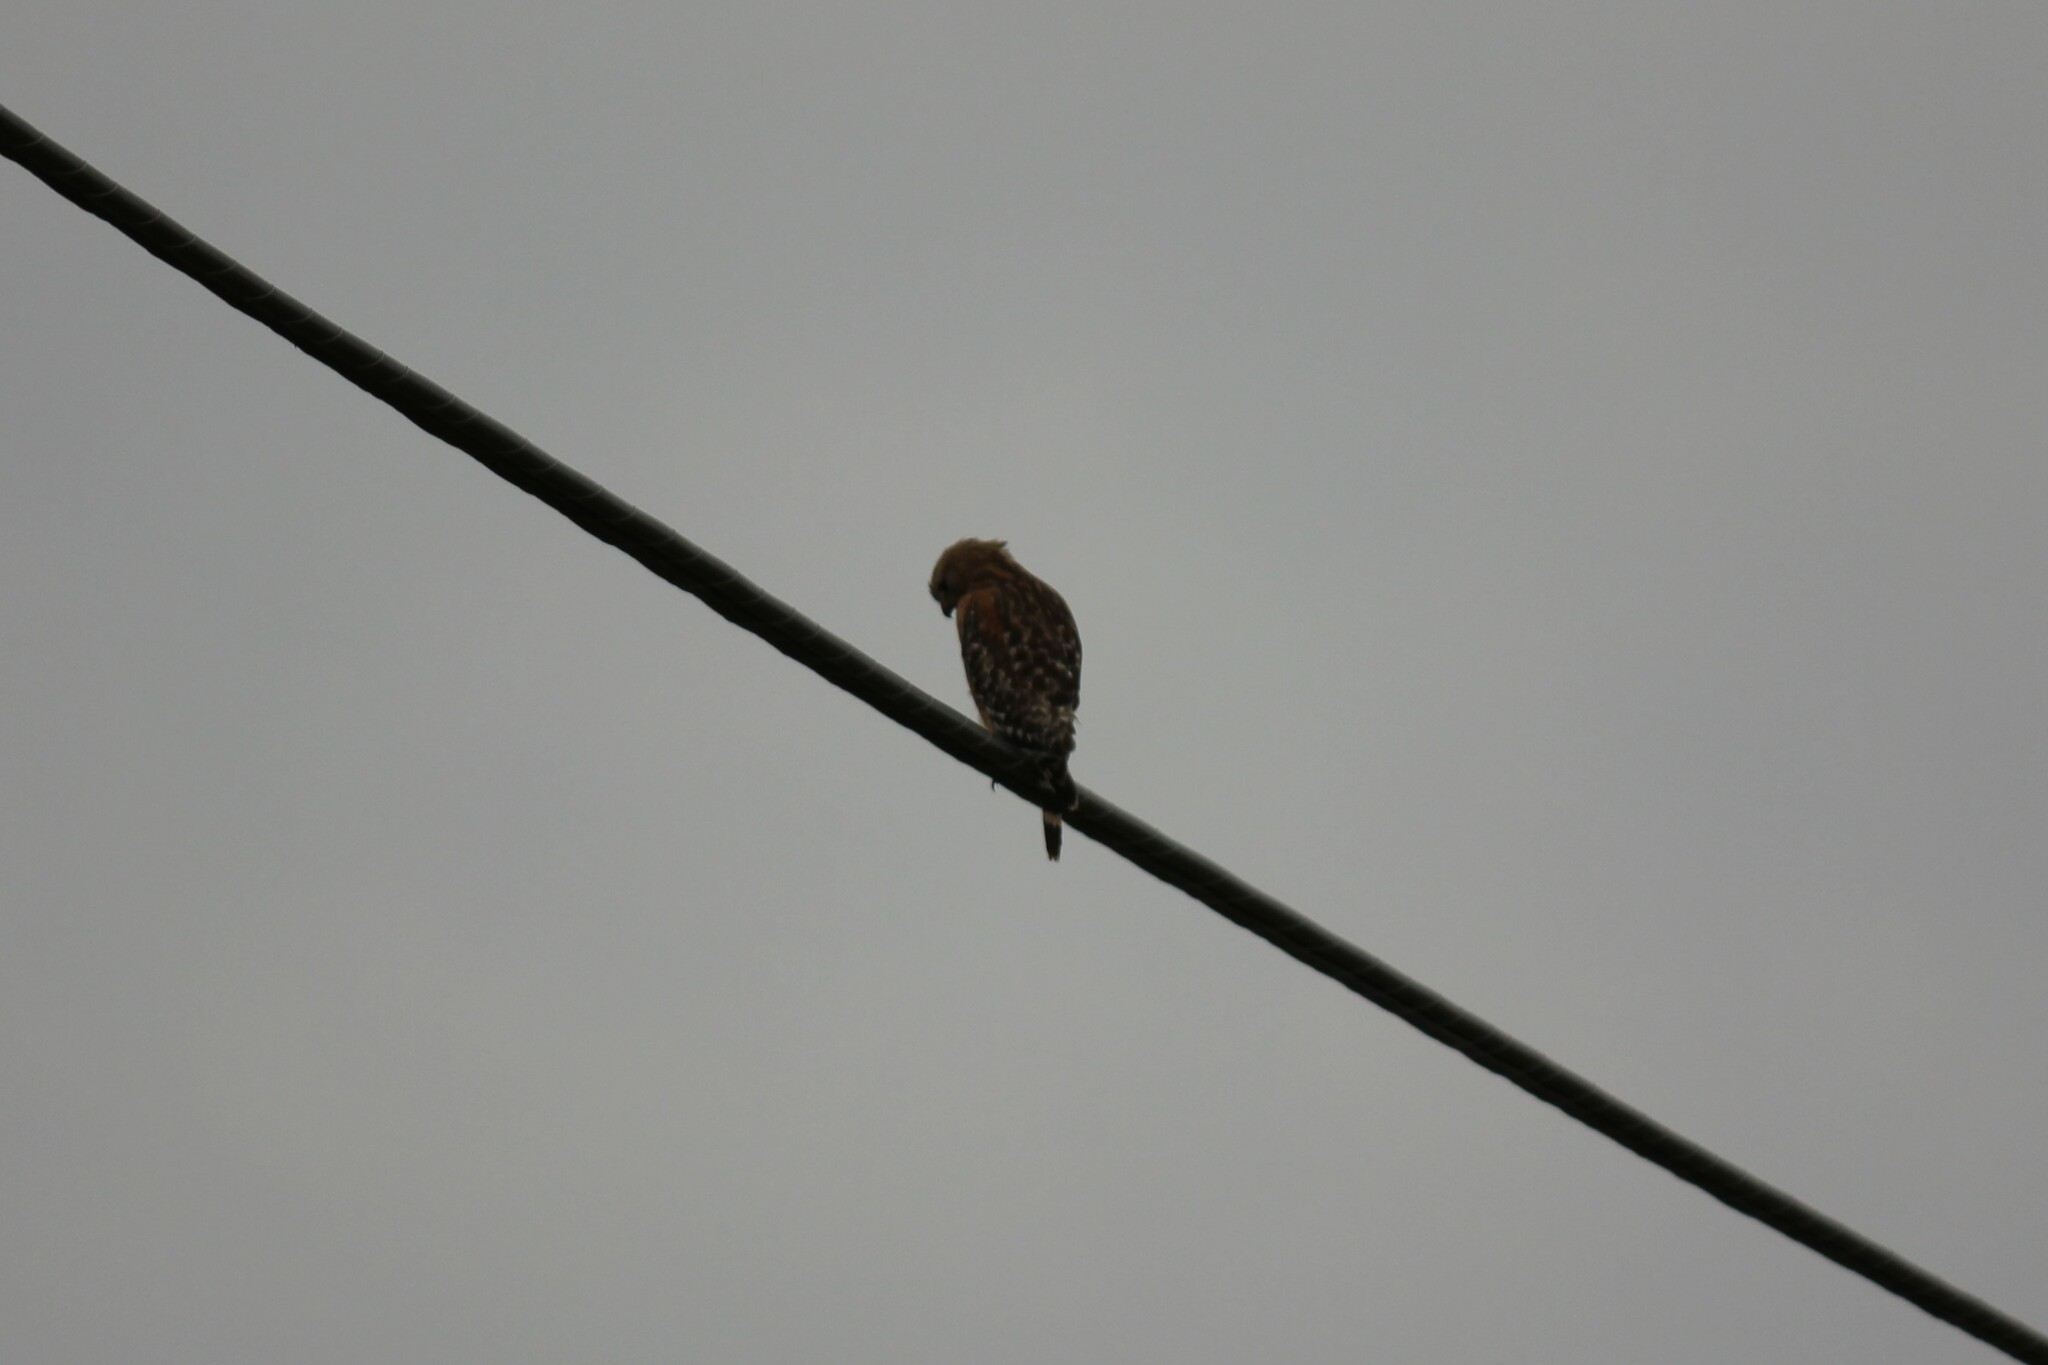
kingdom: Animalia
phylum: Chordata
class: Aves
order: Accipitriformes
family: Accipitridae
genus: Buteo
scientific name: Buteo lineatus
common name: Red-shouldered hawk
